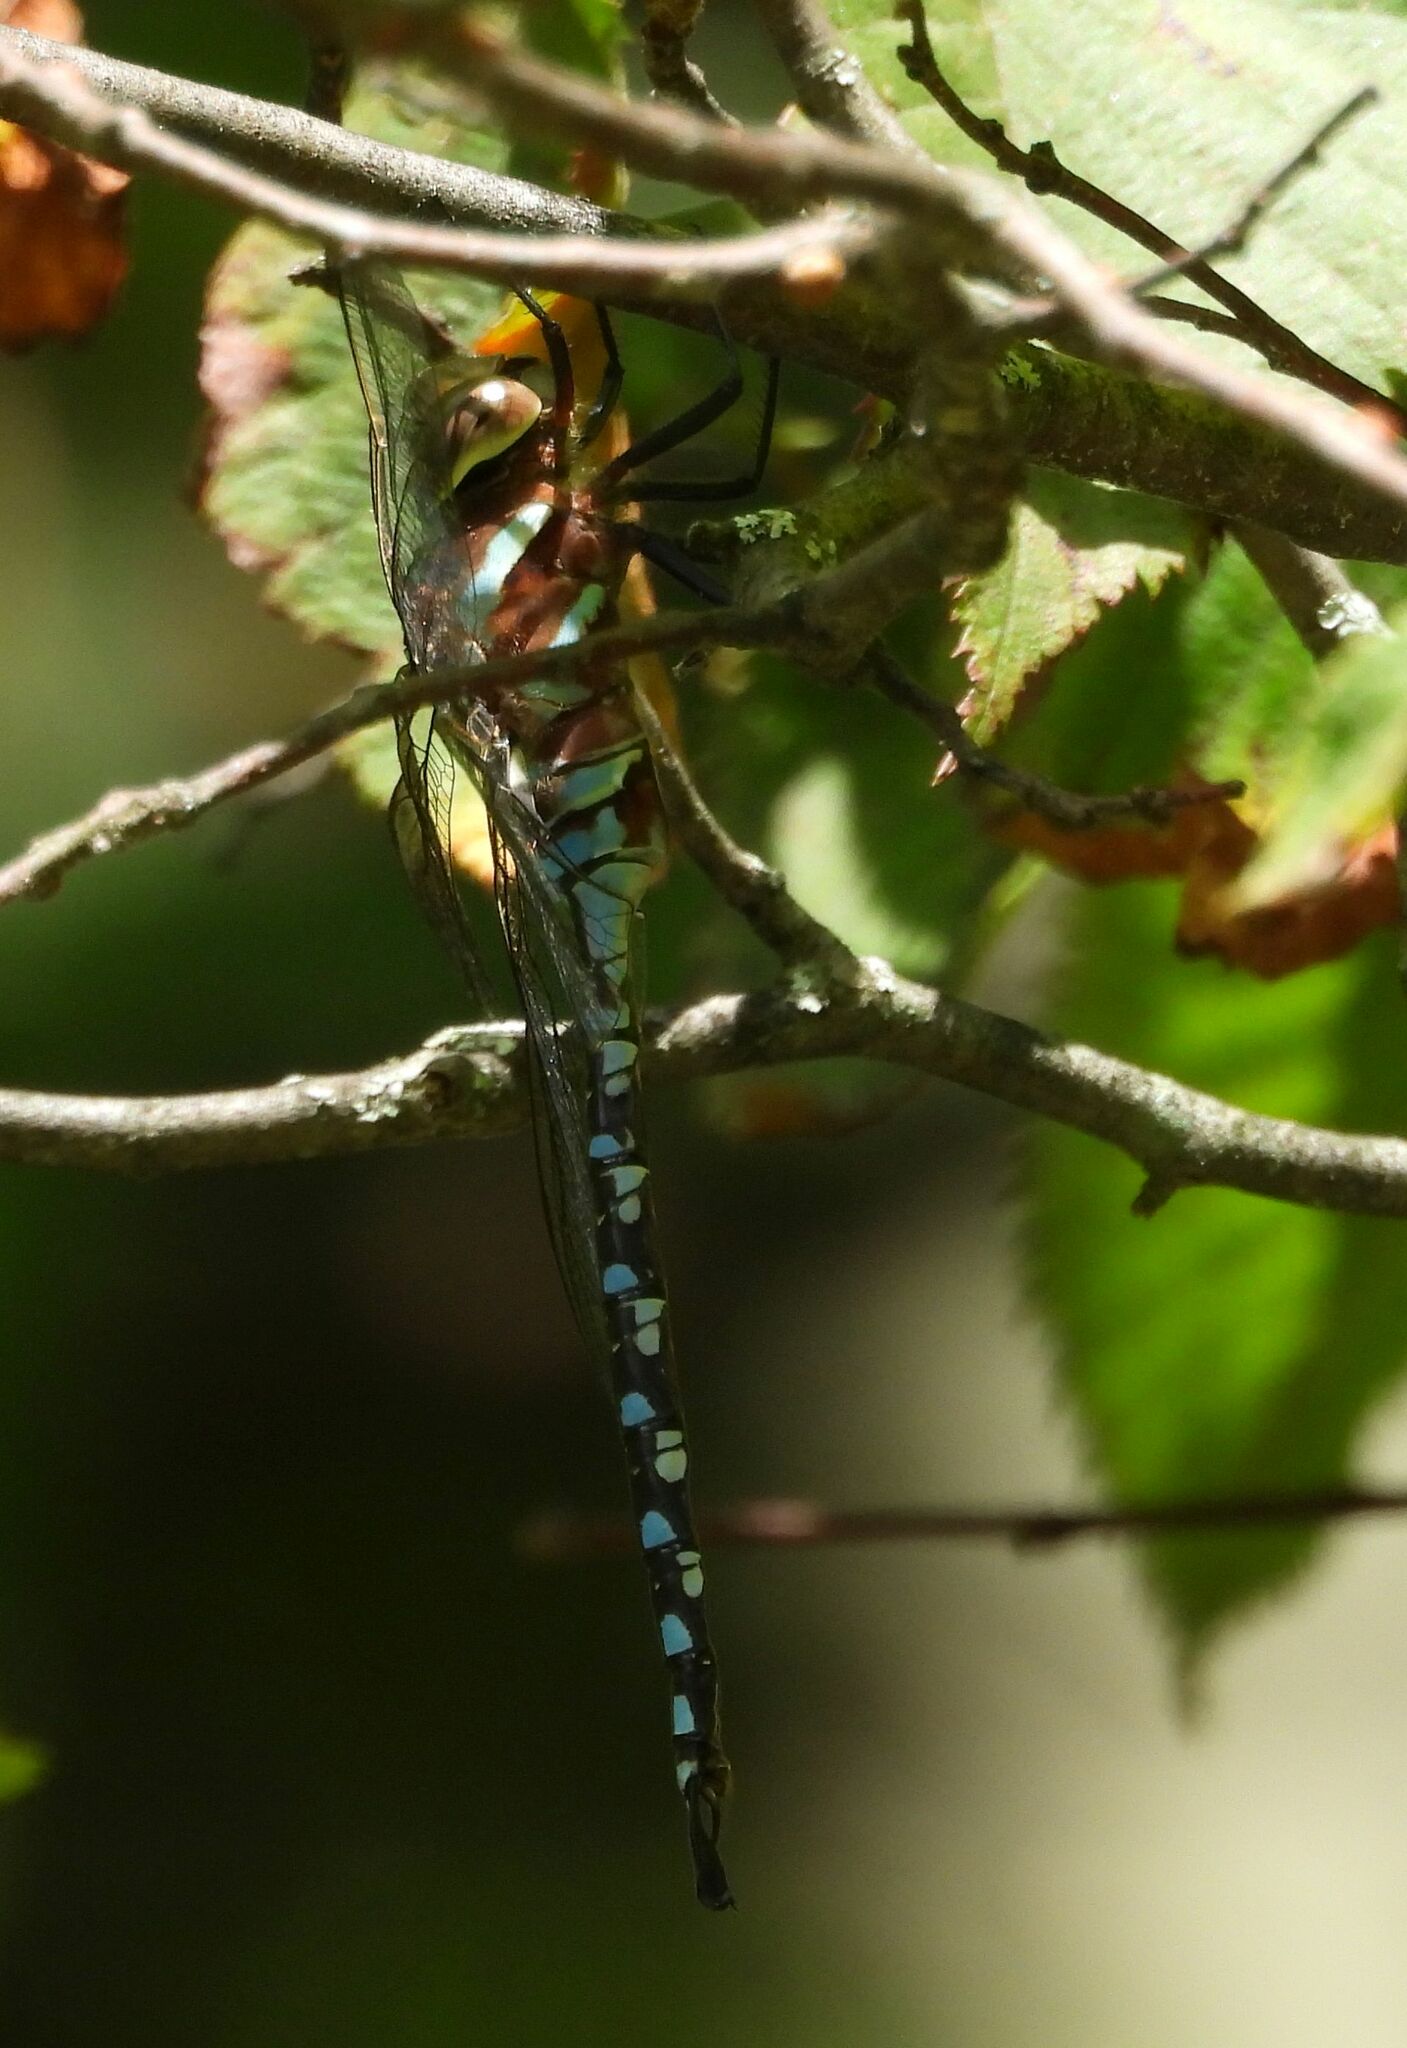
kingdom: Animalia
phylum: Arthropoda
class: Insecta
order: Odonata
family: Aeshnidae
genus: Aeshna
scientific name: Aeshna constricta
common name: Lance-tipped darner
